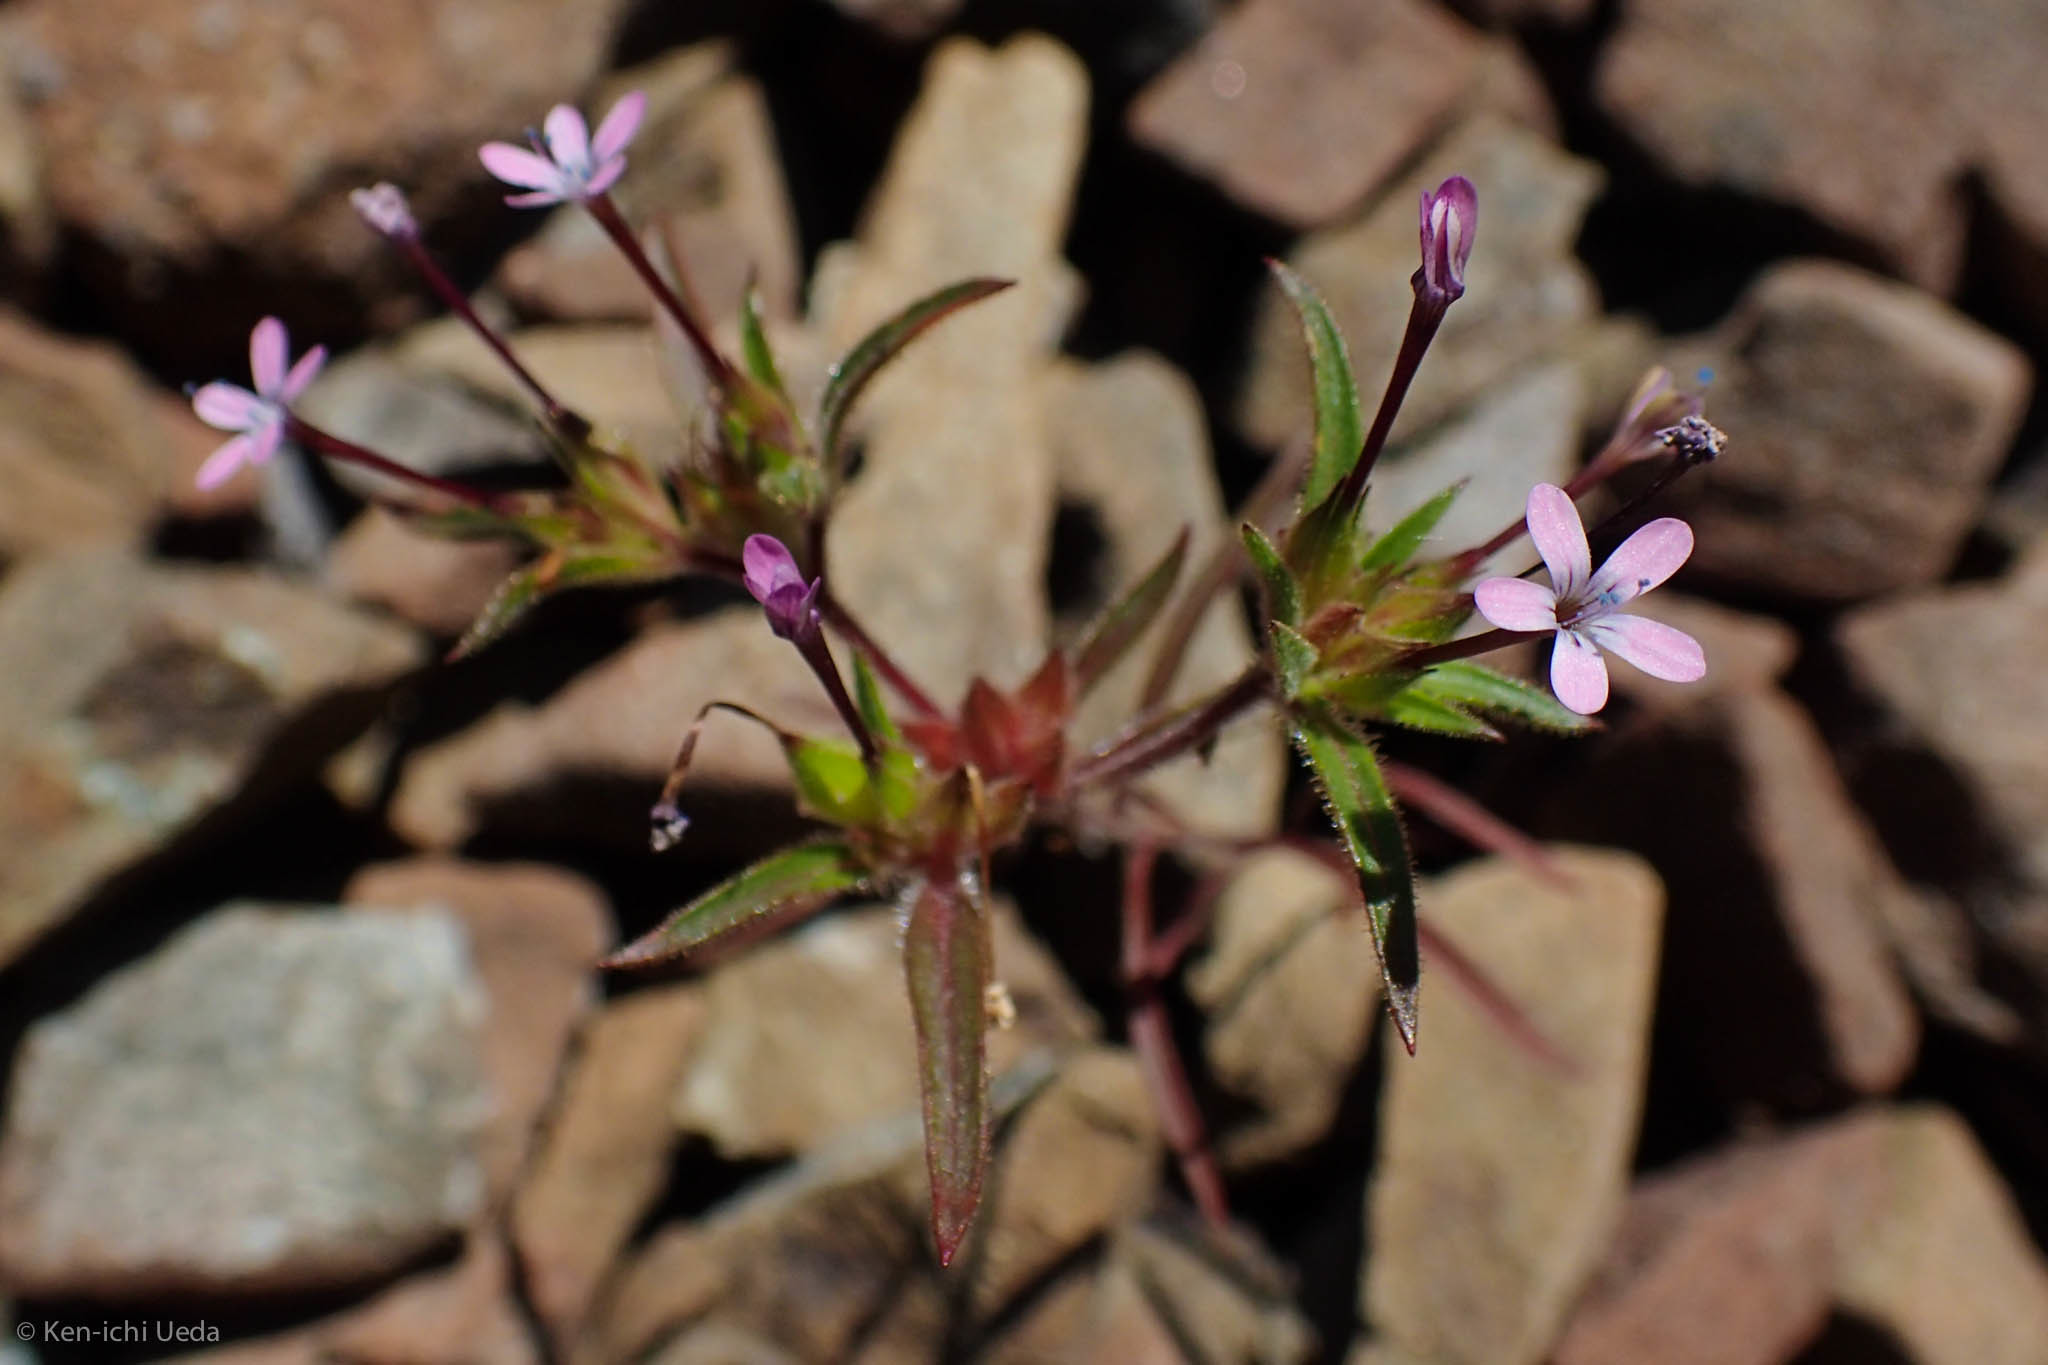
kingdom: Plantae
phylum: Tracheophyta
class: Magnoliopsida
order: Ericales
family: Polemoniaceae
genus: Collomia
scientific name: Collomia tinctoria
